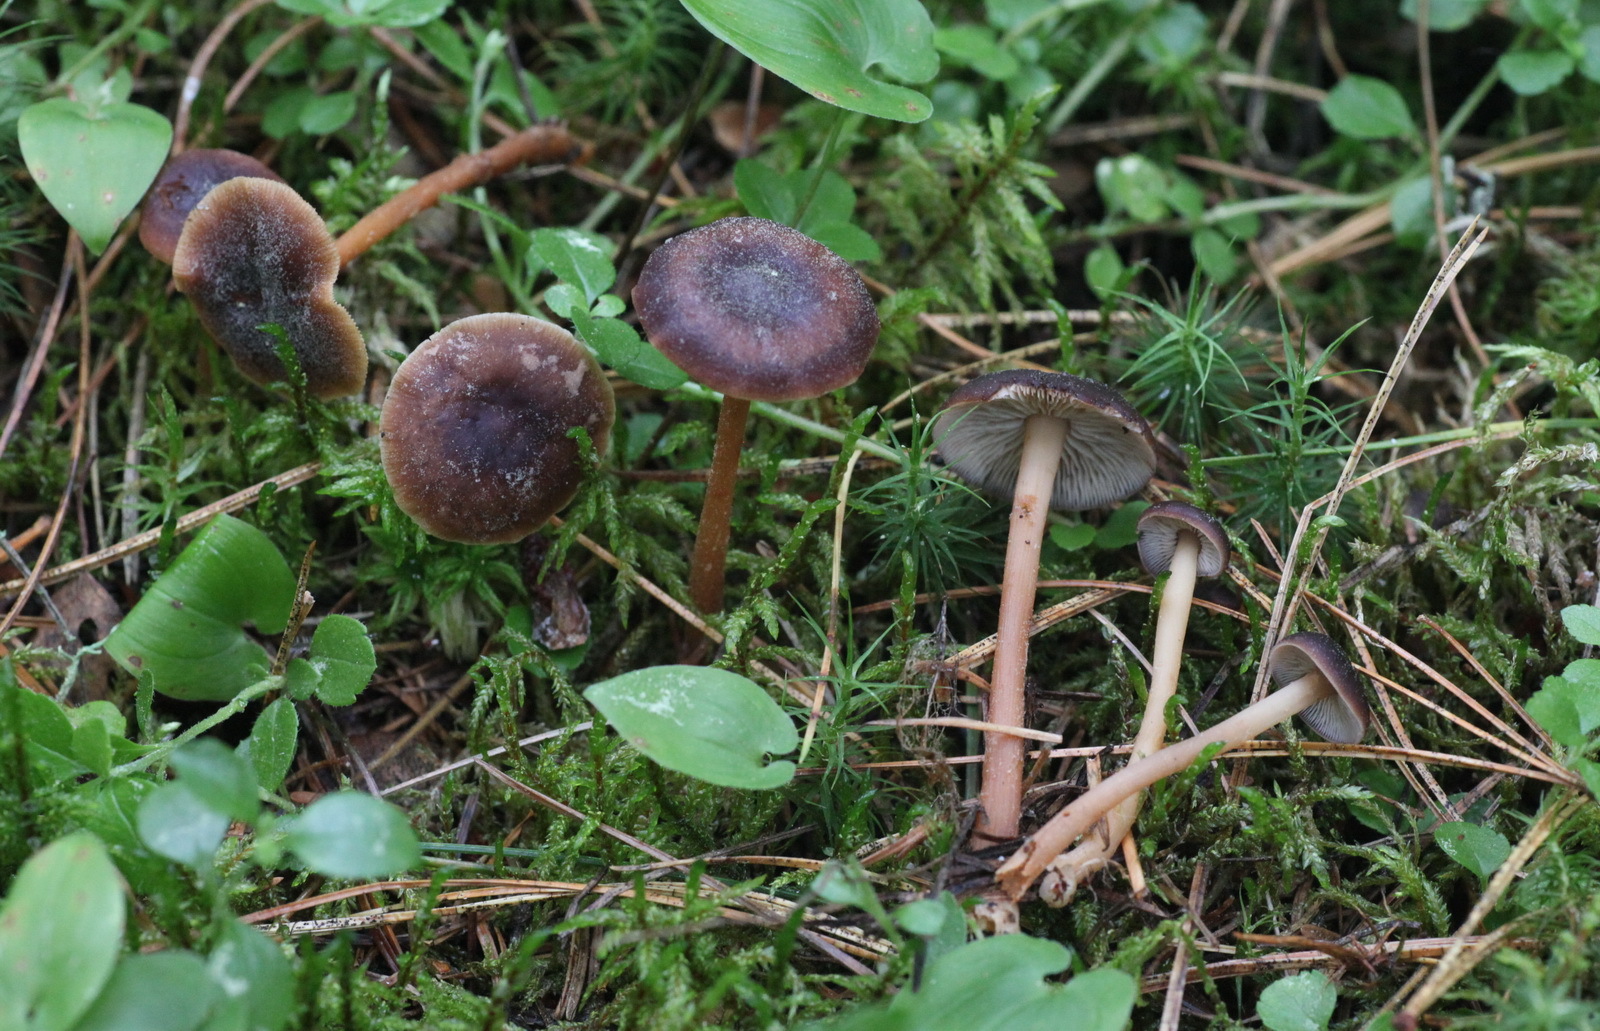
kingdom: Fungi
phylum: Basidiomycota
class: Agaricomycetes
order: Agaricales
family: Omphalotaceae
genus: Gymnopus
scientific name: Gymnopus ocior
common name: Spring toughshank
